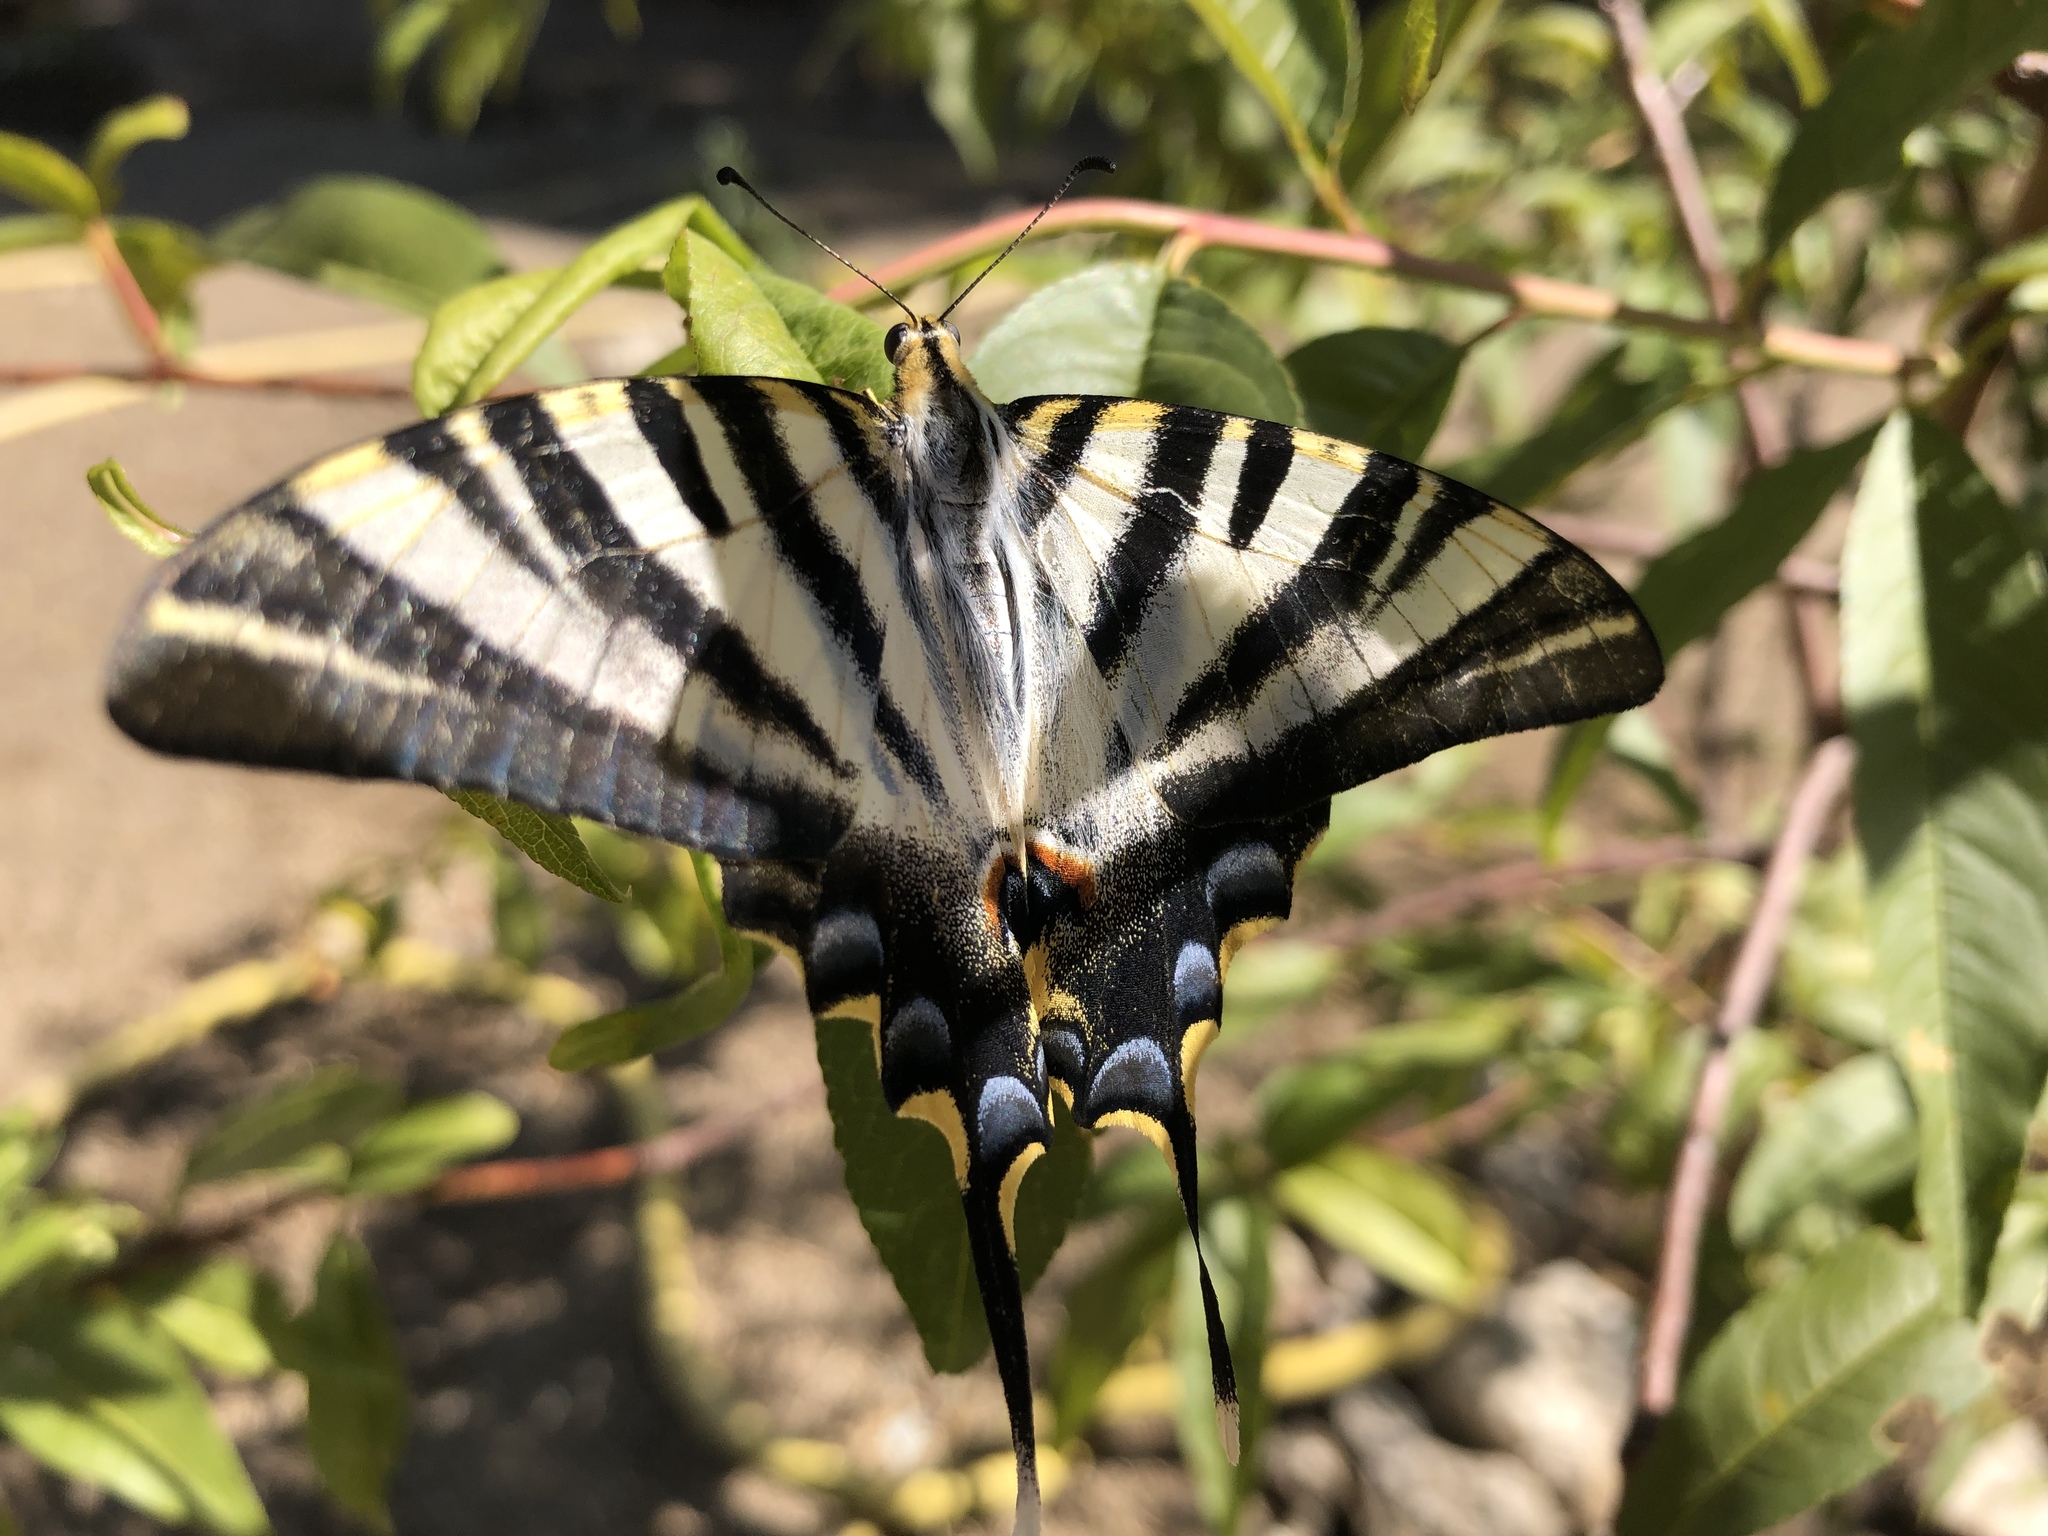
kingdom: Animalia
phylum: Arthropoda
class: Insecta
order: Lepidoptera
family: Papilionidae
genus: Iphiclides
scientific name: Iphiclides feisthamelii
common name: Iberian scarce swallowtail
